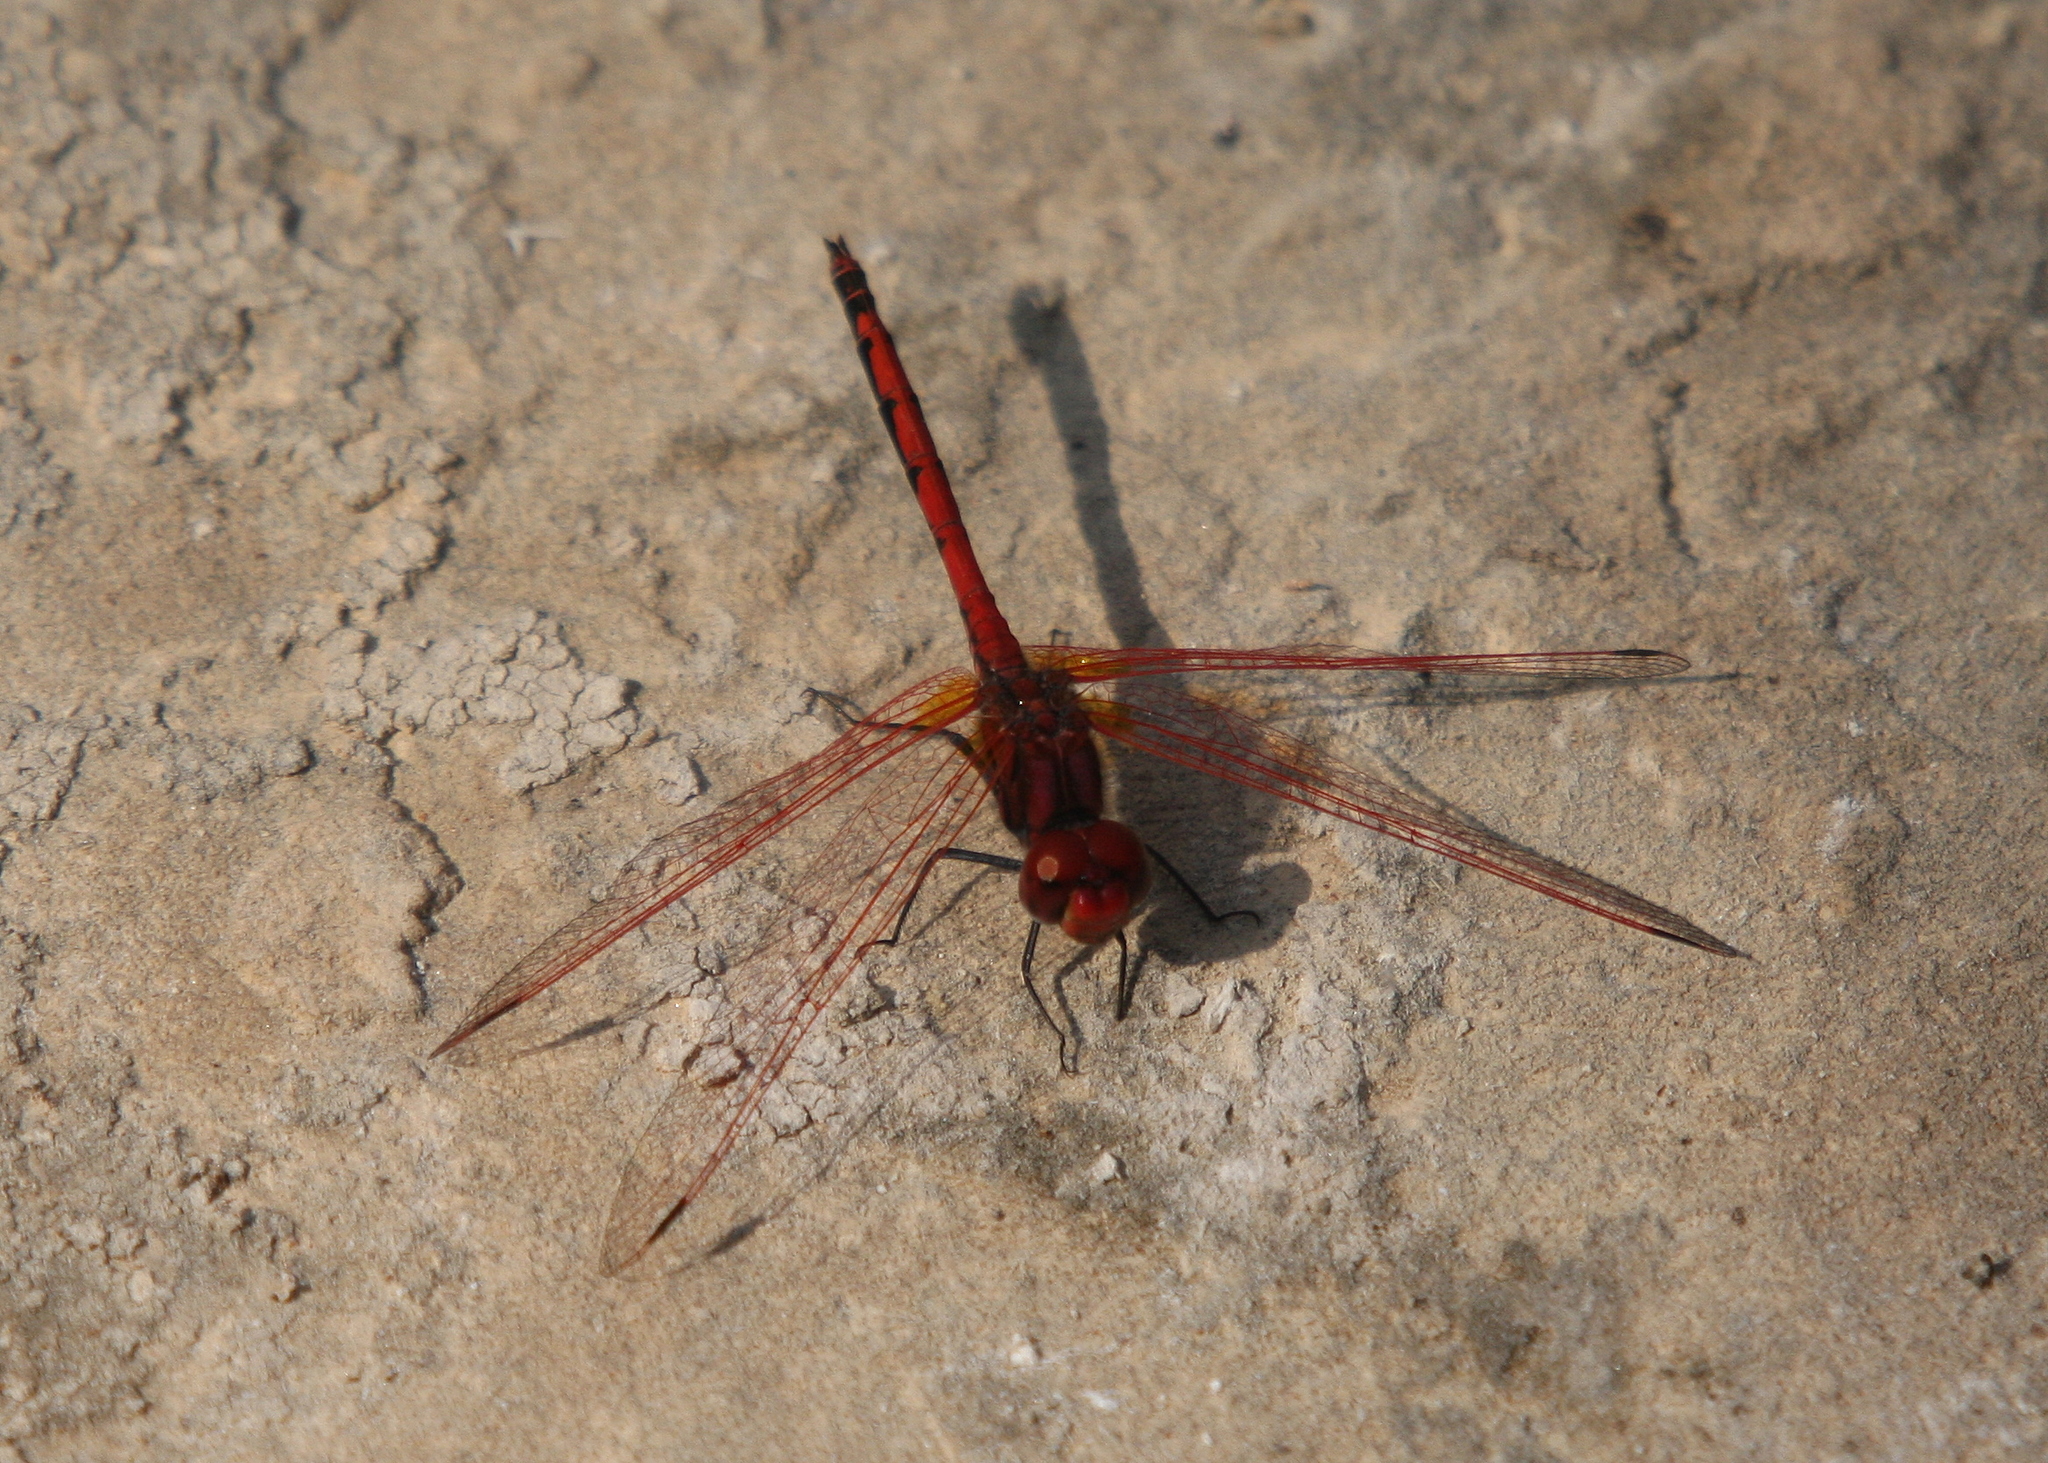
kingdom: Animalia
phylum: Arthropoda
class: Insecta
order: Odonata
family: Libellulidae
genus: Trithemis
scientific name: Trithemis arteriosa
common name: Red-veined dropwing
